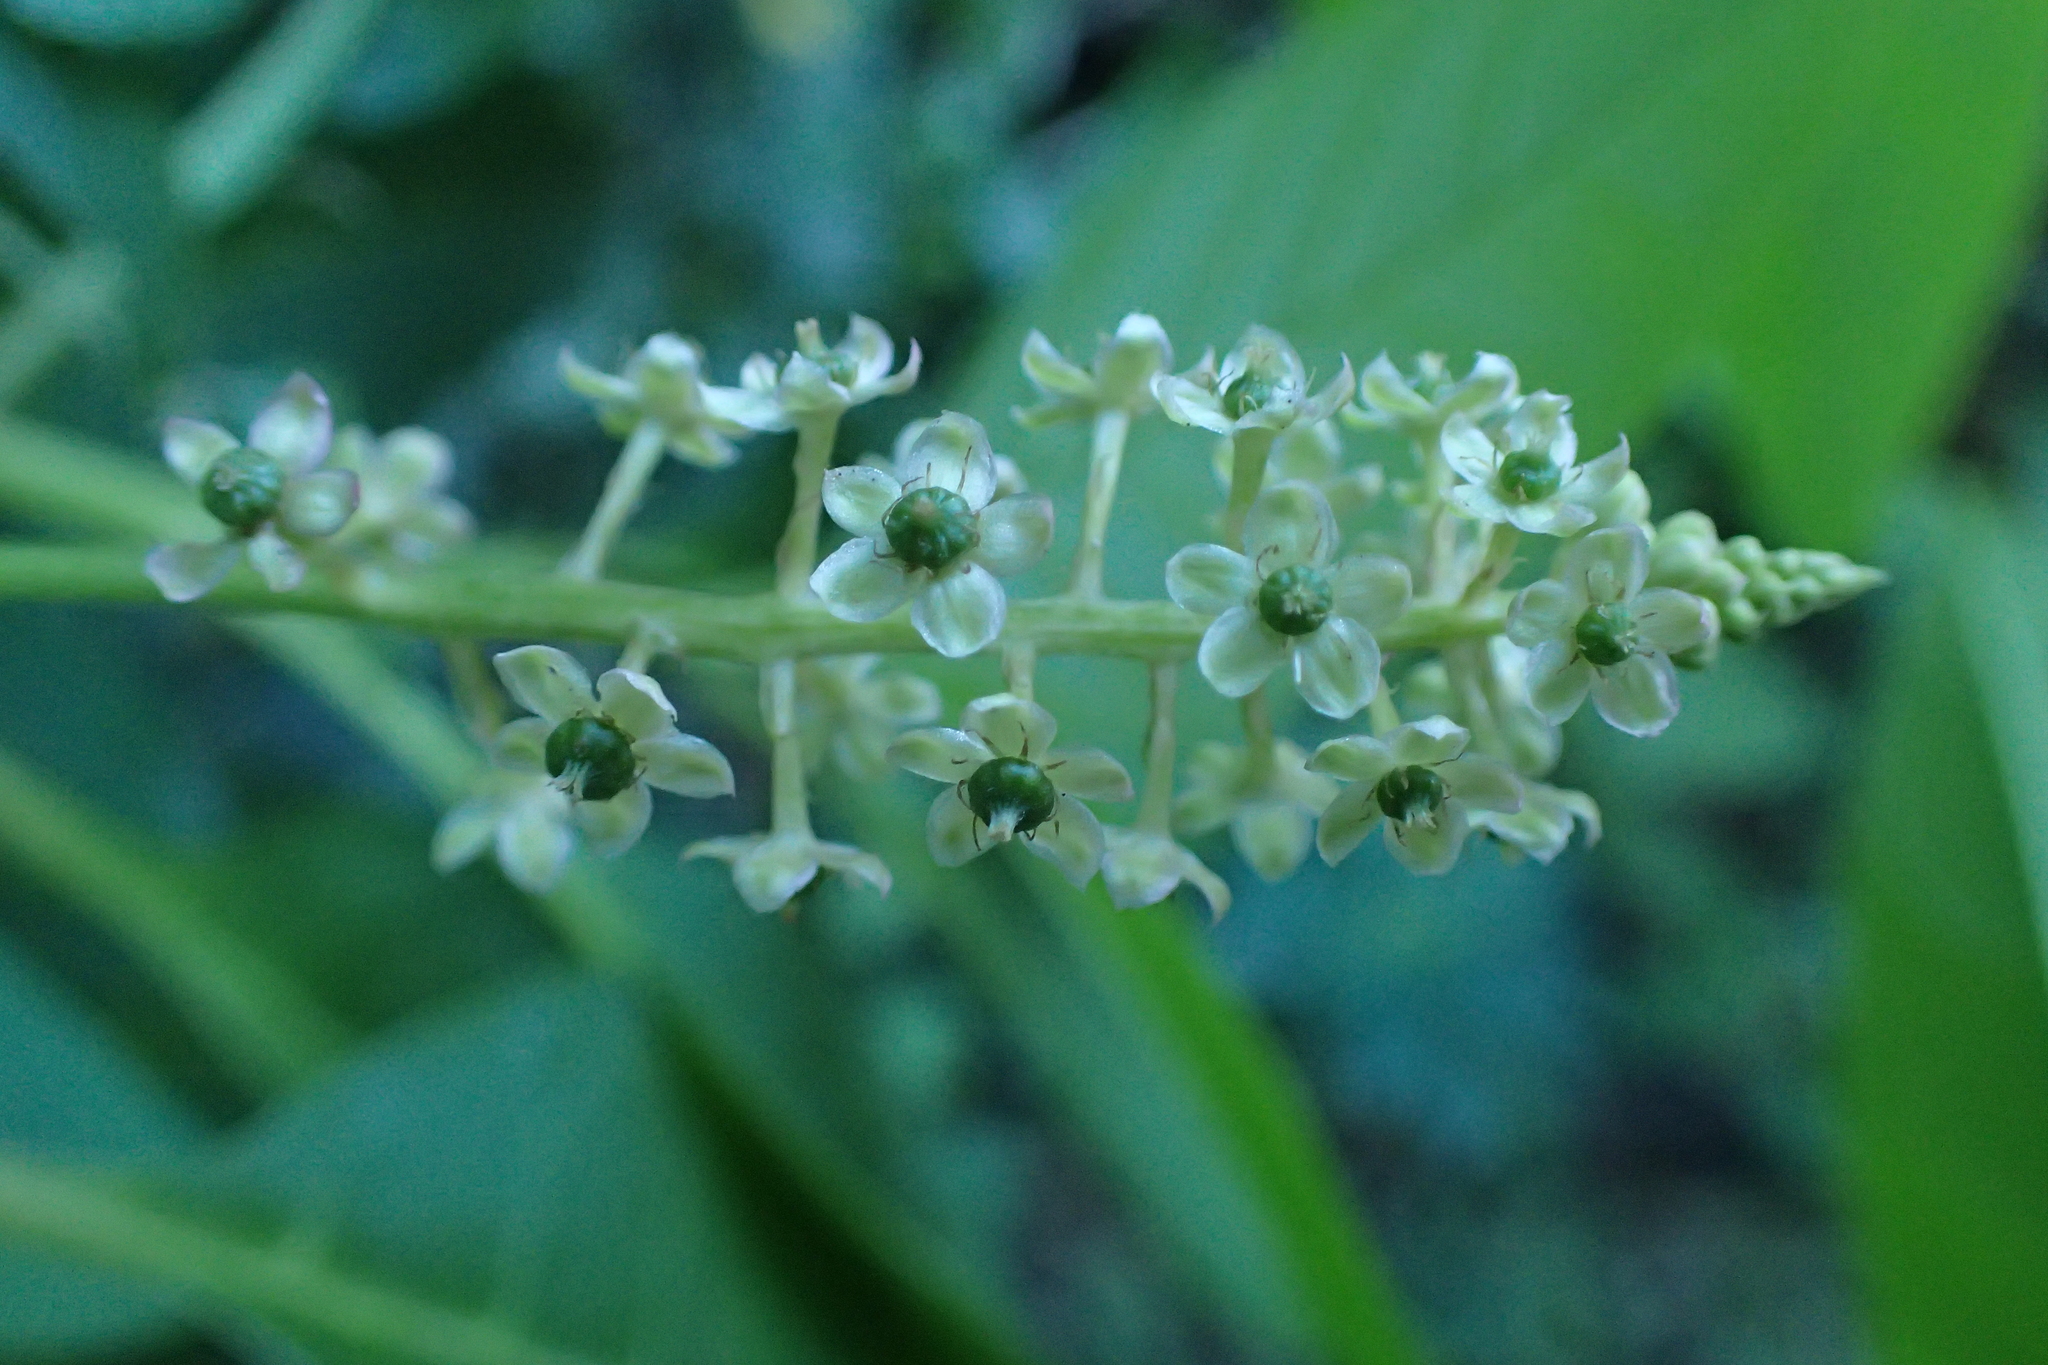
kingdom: Plantae
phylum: Tracheophyta
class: Magnoliopsida
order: Caryophyllales
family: Phytolaccaceae
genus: Phytolacca
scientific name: Phytolacca americana
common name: American pokeweed
